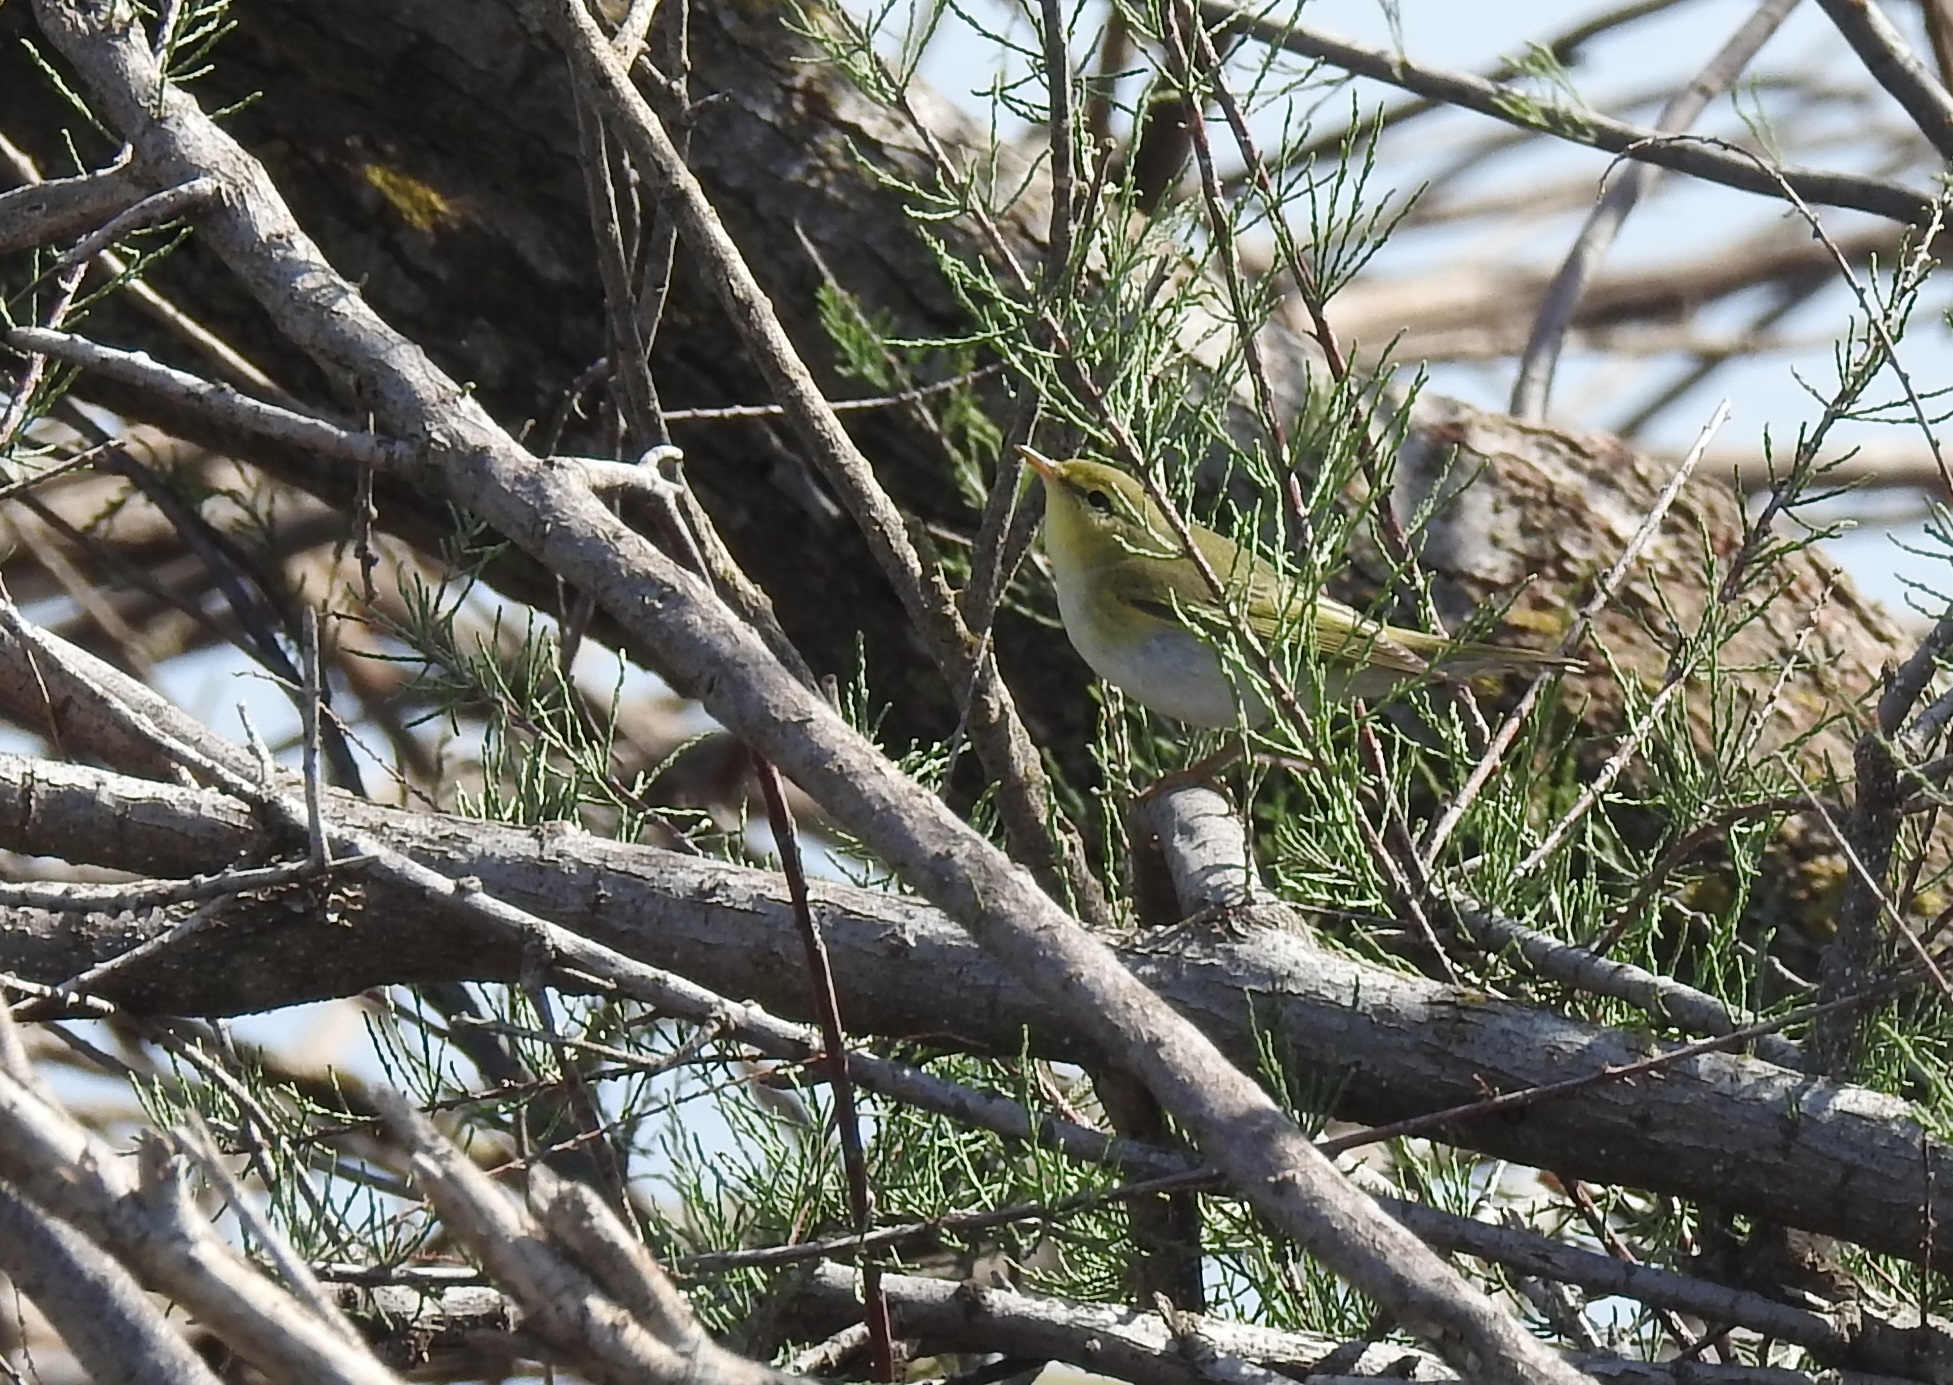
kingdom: Animalia
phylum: Chordata
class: Aves
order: Passeriformes
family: Phylloscopidae
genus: Phylloscopus
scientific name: Phylloscopus sibillatrix
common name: Wood warbler
